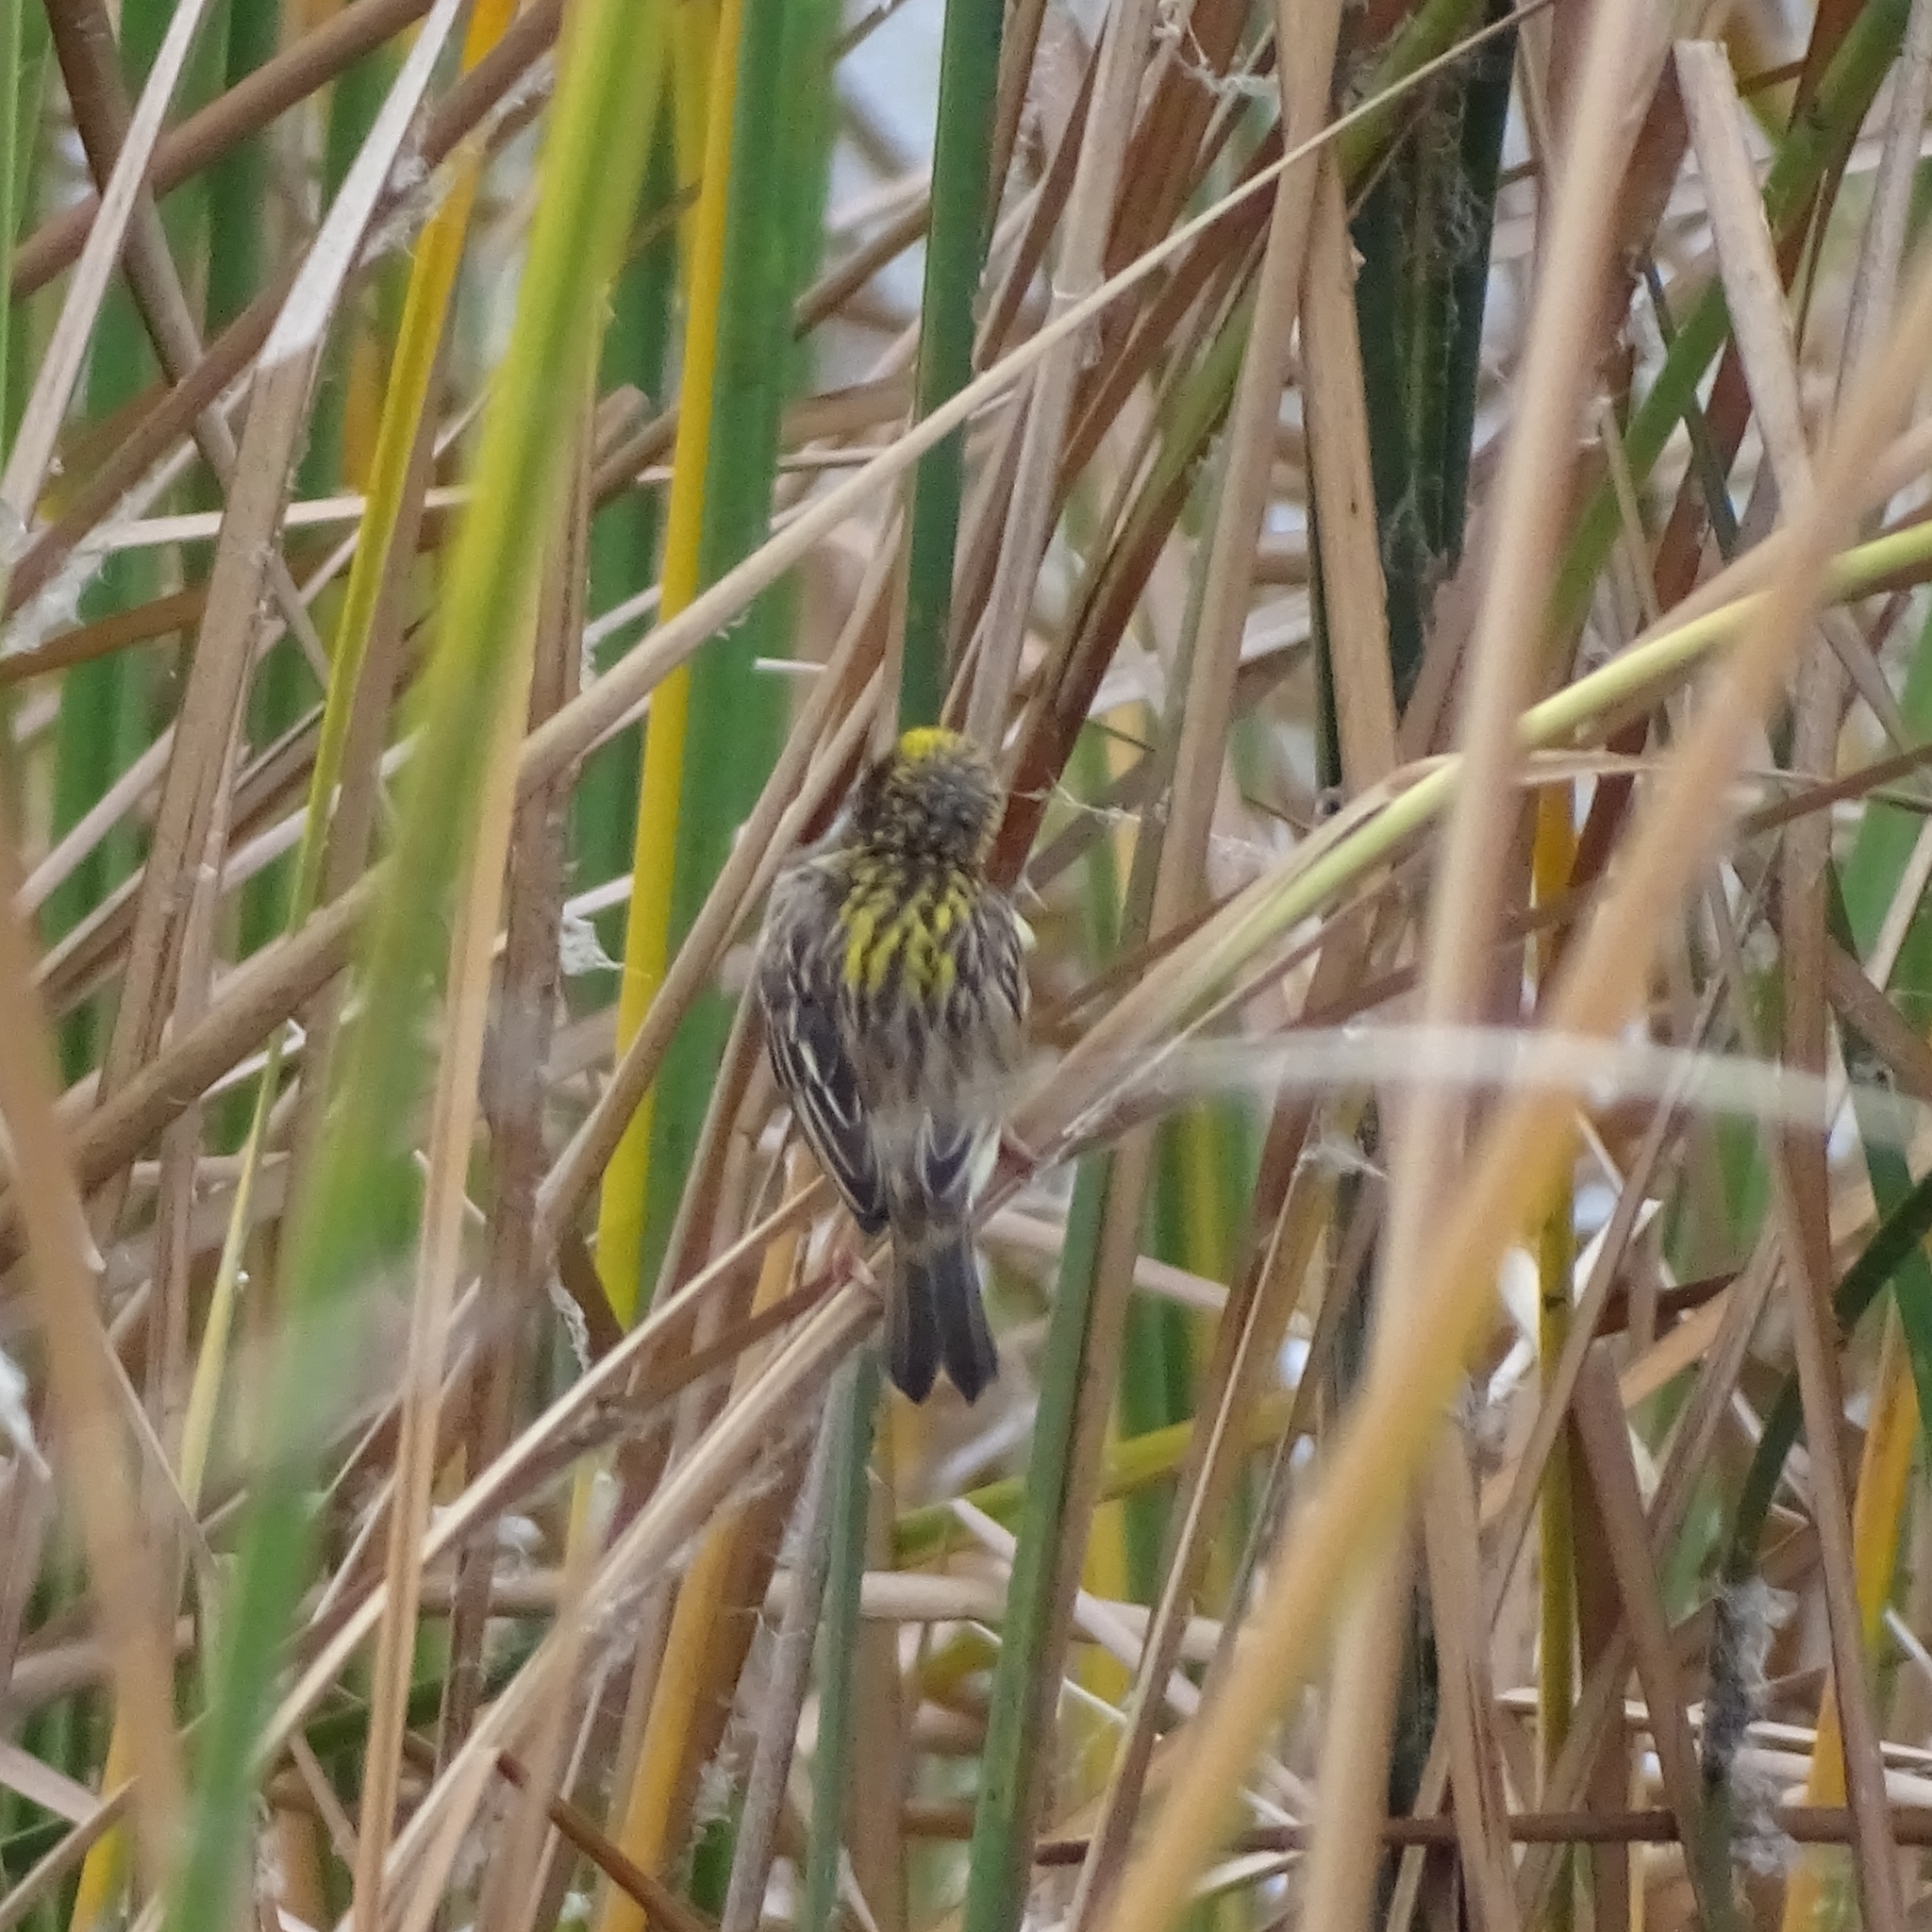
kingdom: Animalia
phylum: Chordata
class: Aves
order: Passeriformes
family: Ploceidae
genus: Ploceus
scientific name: Ploceus manyar
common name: Streaked weaver
